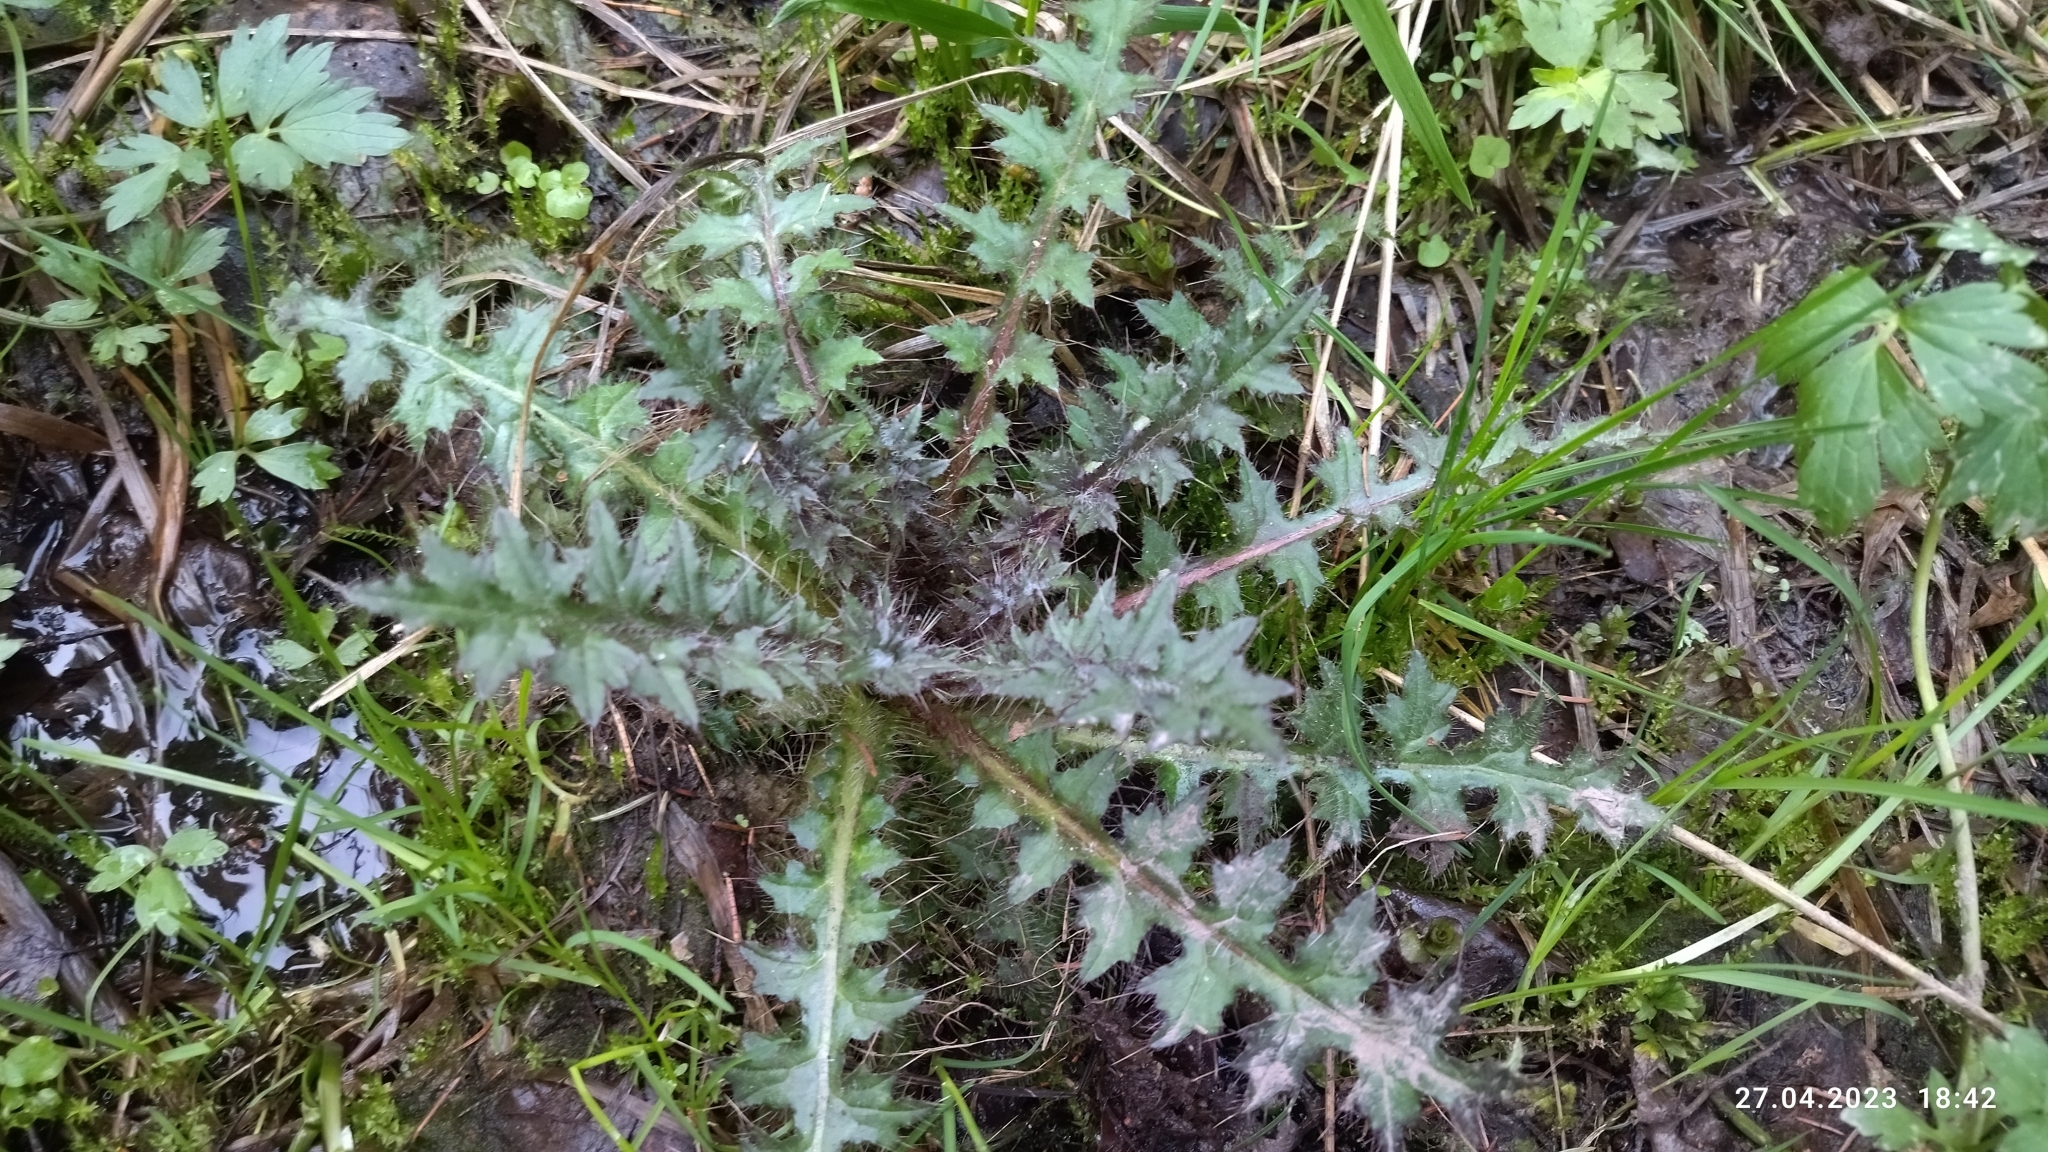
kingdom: Plantae
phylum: Tracheophyta
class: Magnoliopsida
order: Asterales
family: Asteraceae
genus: Cirsium
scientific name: Cirsium palustre
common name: Marsh thistle
